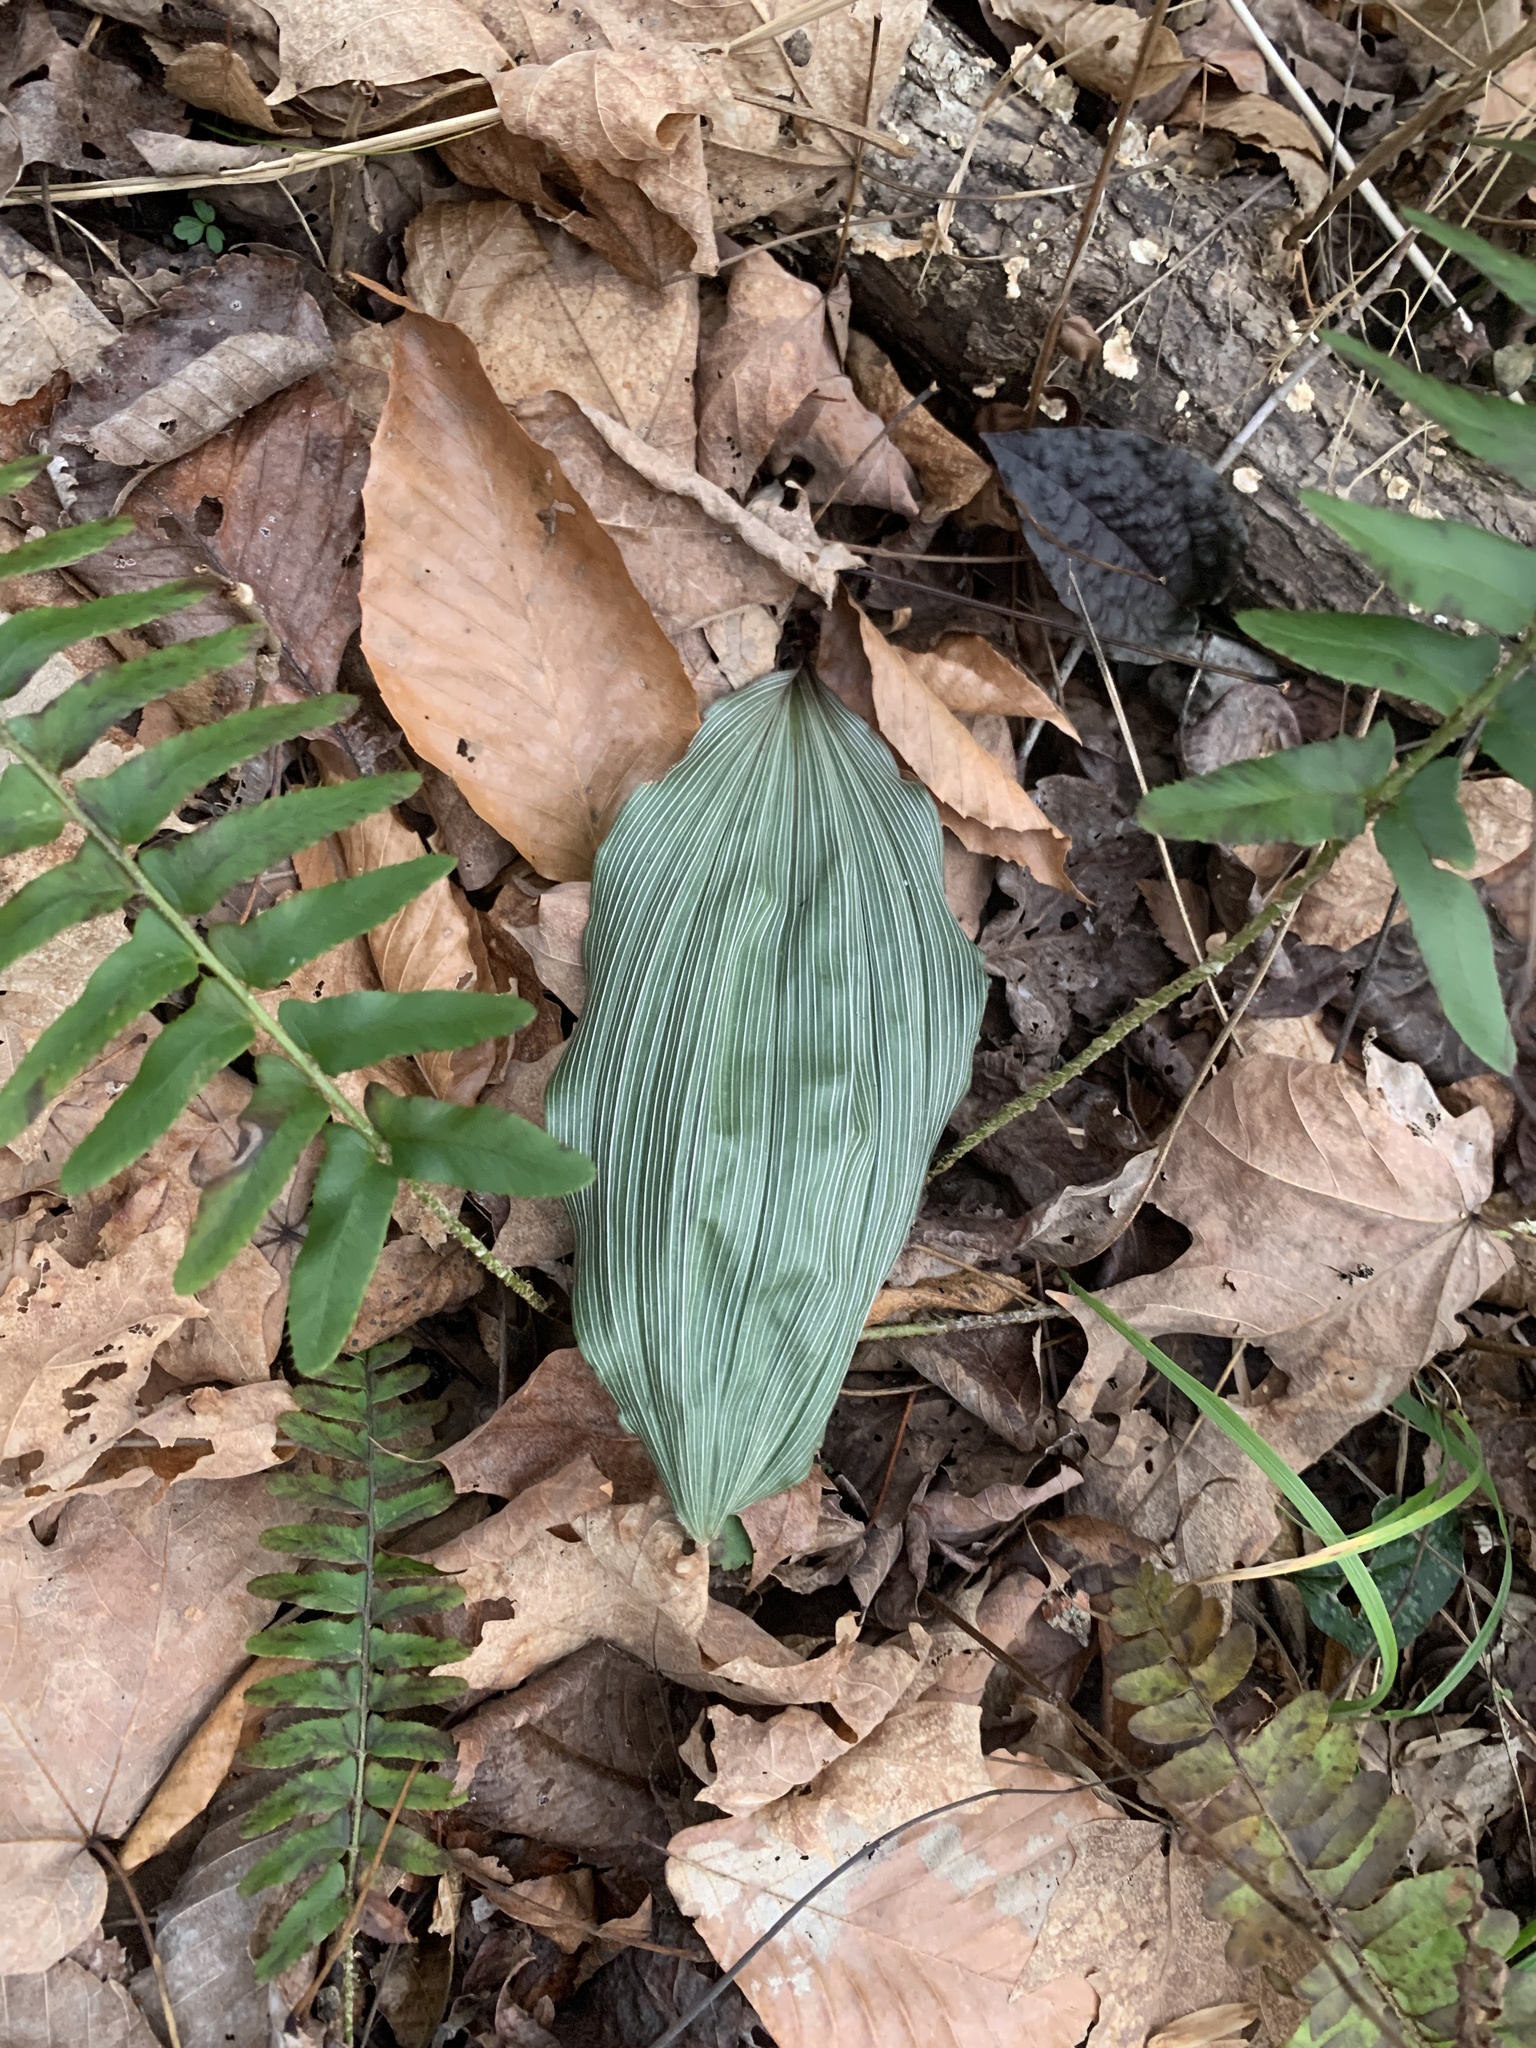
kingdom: Plantae
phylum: Tracheophyta
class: Liliopsida
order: Asparagales
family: Orchidaceae
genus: Aplectrum
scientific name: Aplectrum hyemale
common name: Adam-and-eve
